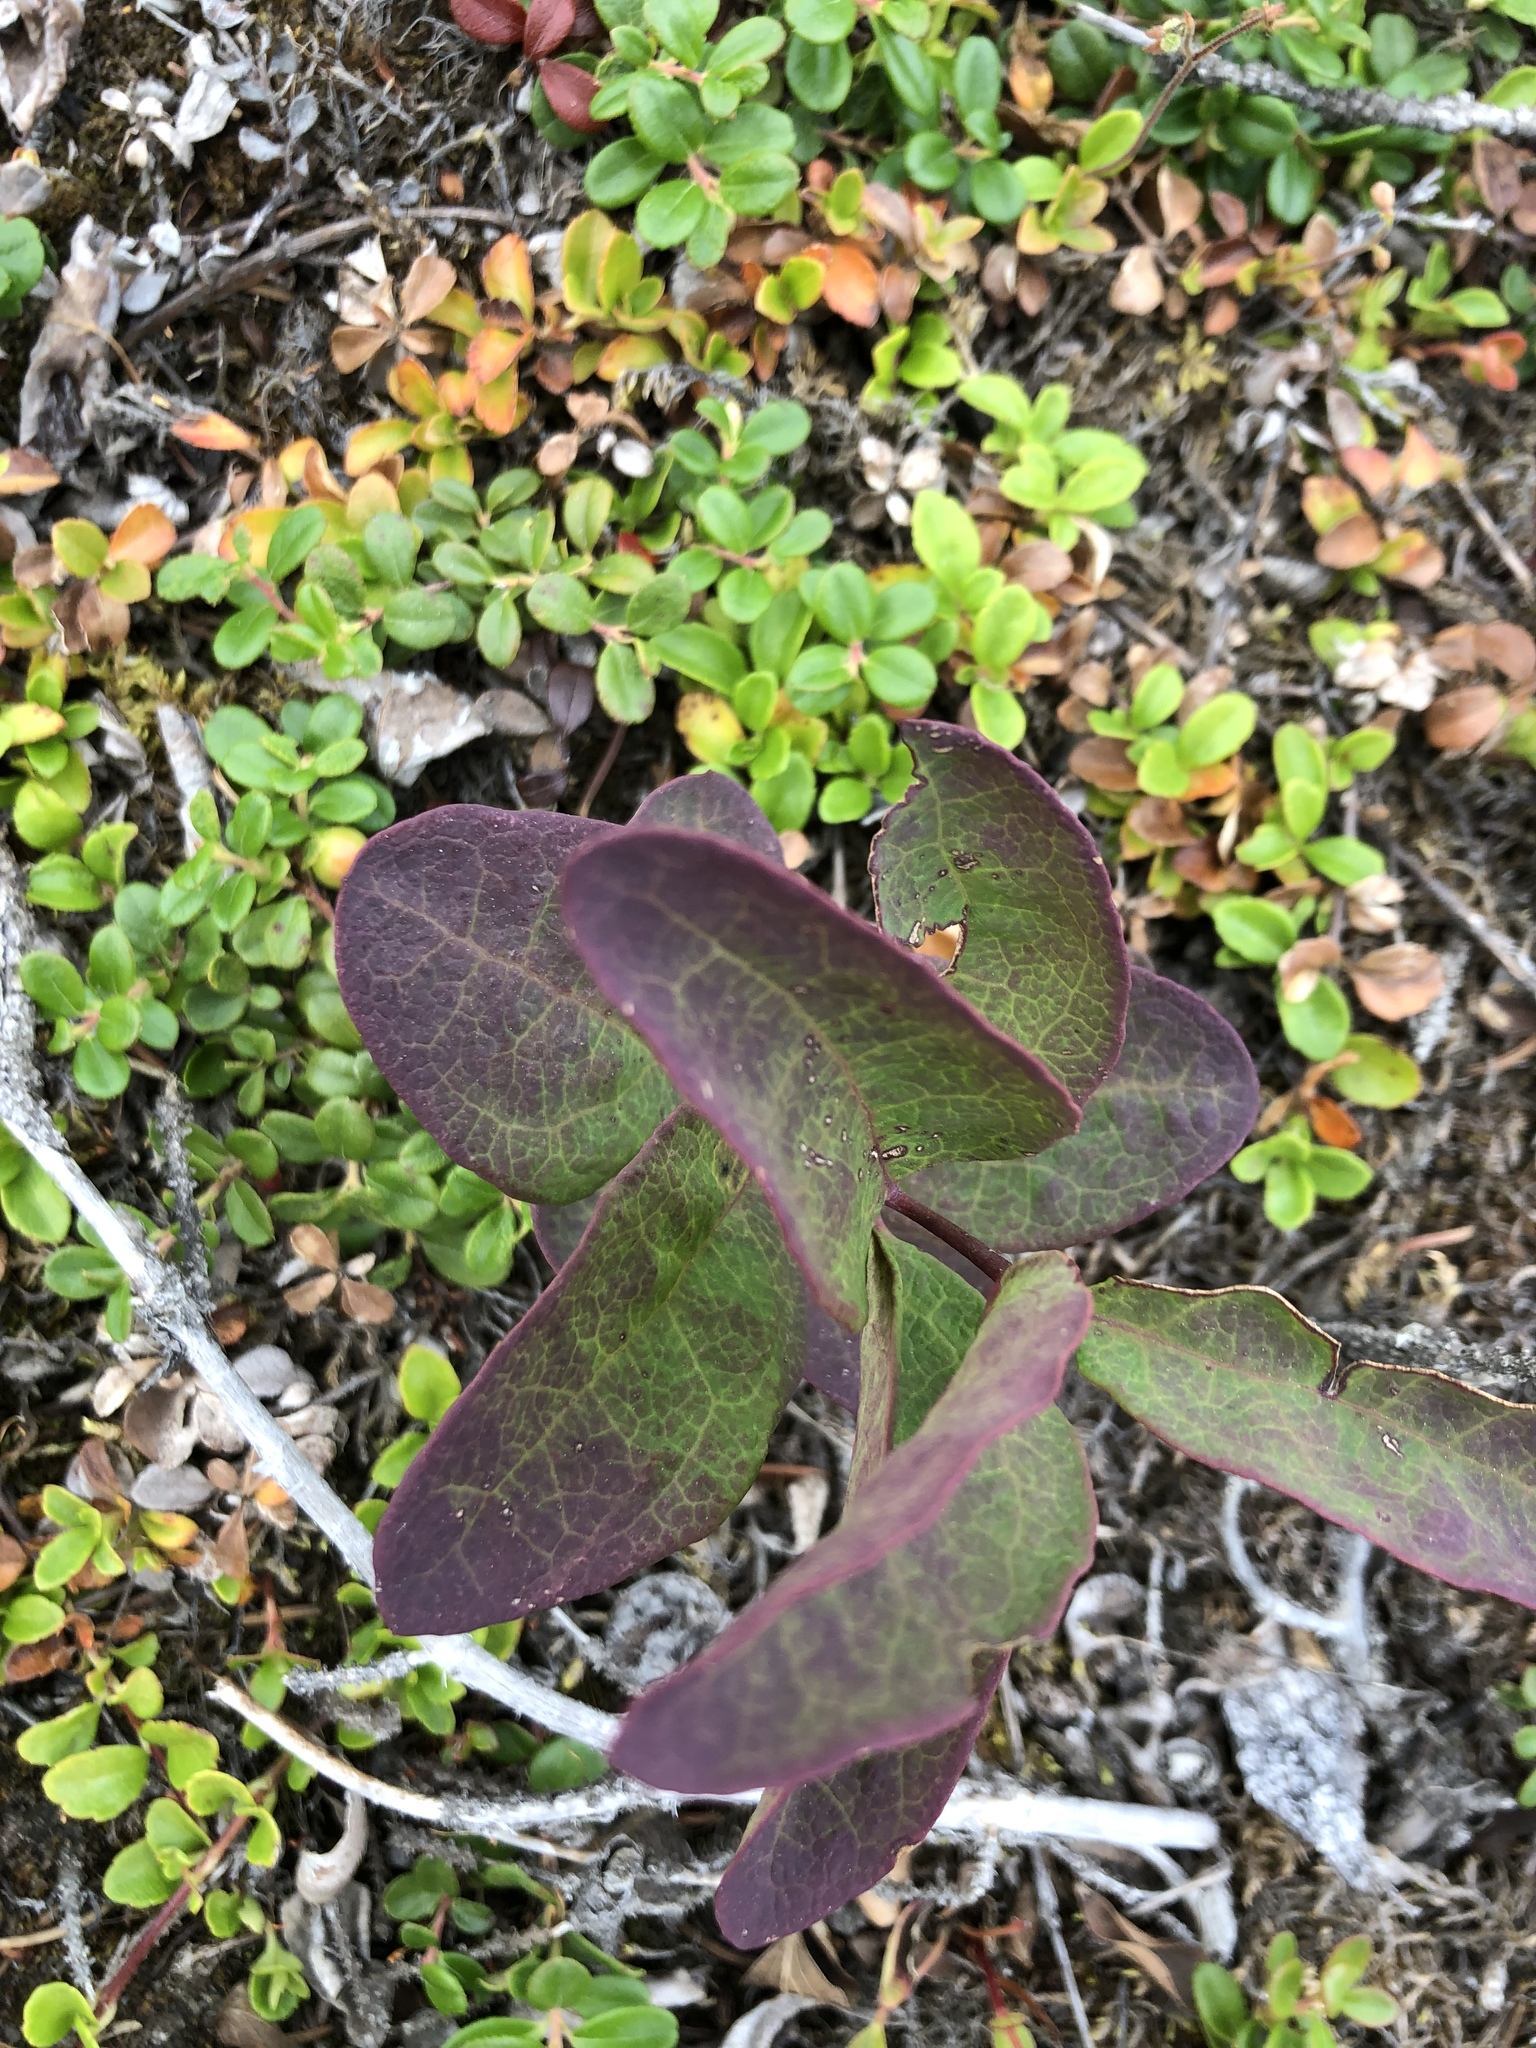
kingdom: Plantae
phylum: Tracheophyta
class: Magnoliopsida
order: Santalales
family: Comandraceae
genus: Geocaulon
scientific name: Geocaulon lividum
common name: Earthberry
